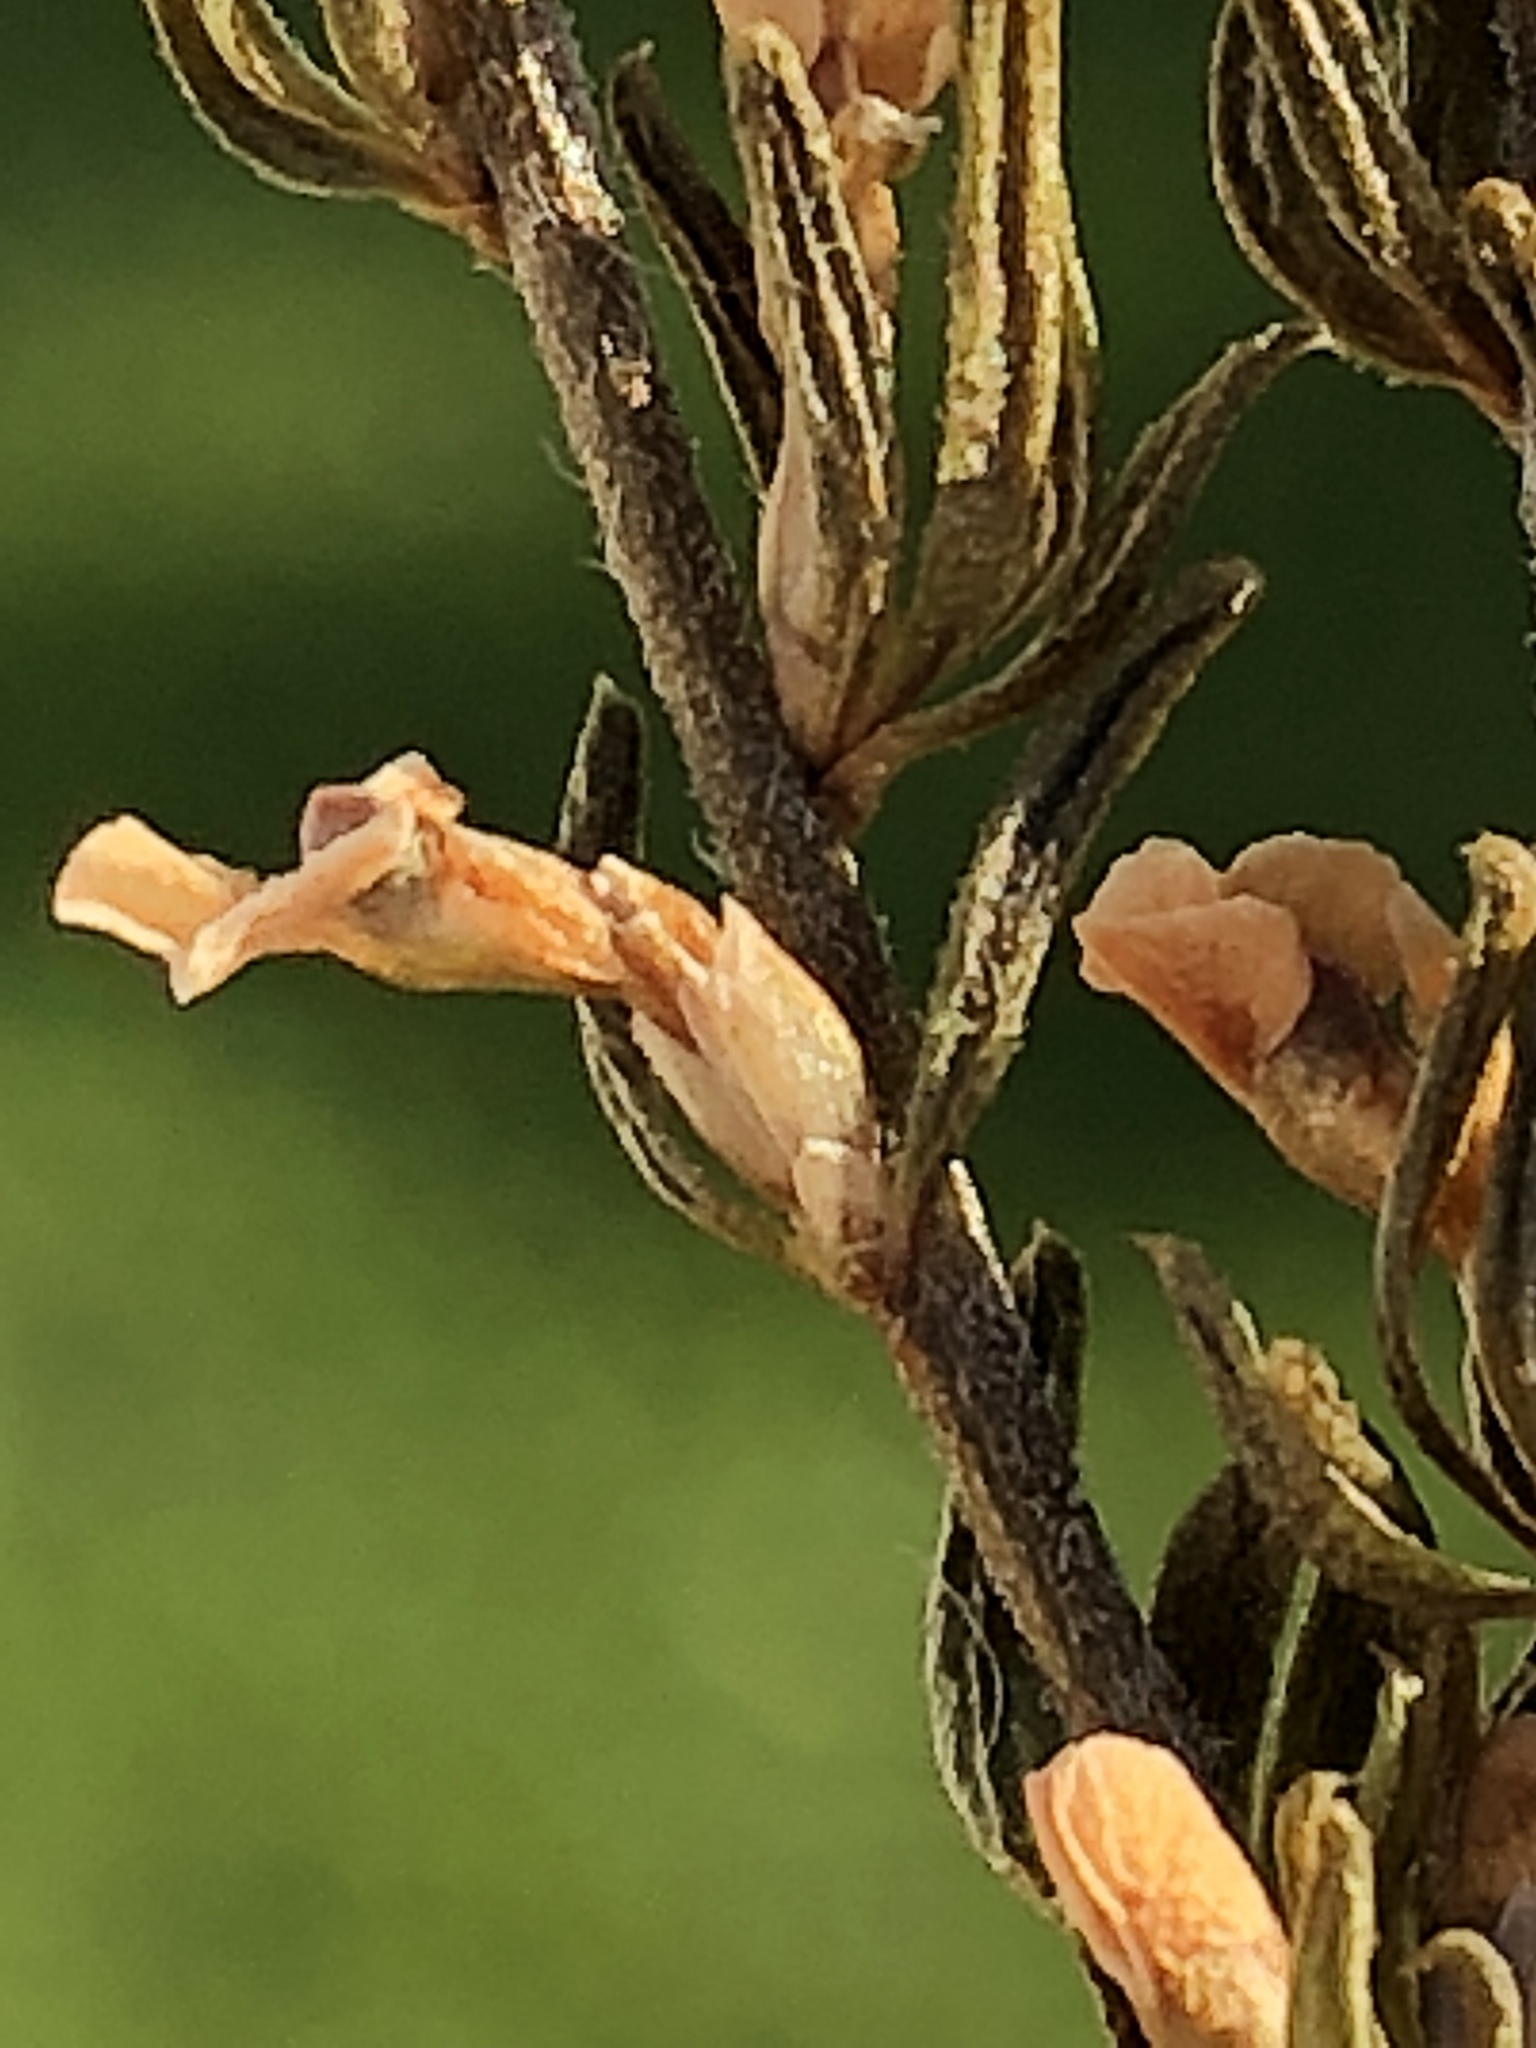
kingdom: Plantae
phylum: Tracheophyta
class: Magnoliopsida
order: Fabales
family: Polygalaceae
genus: Muraltia
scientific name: Muraltia alopecuroides
